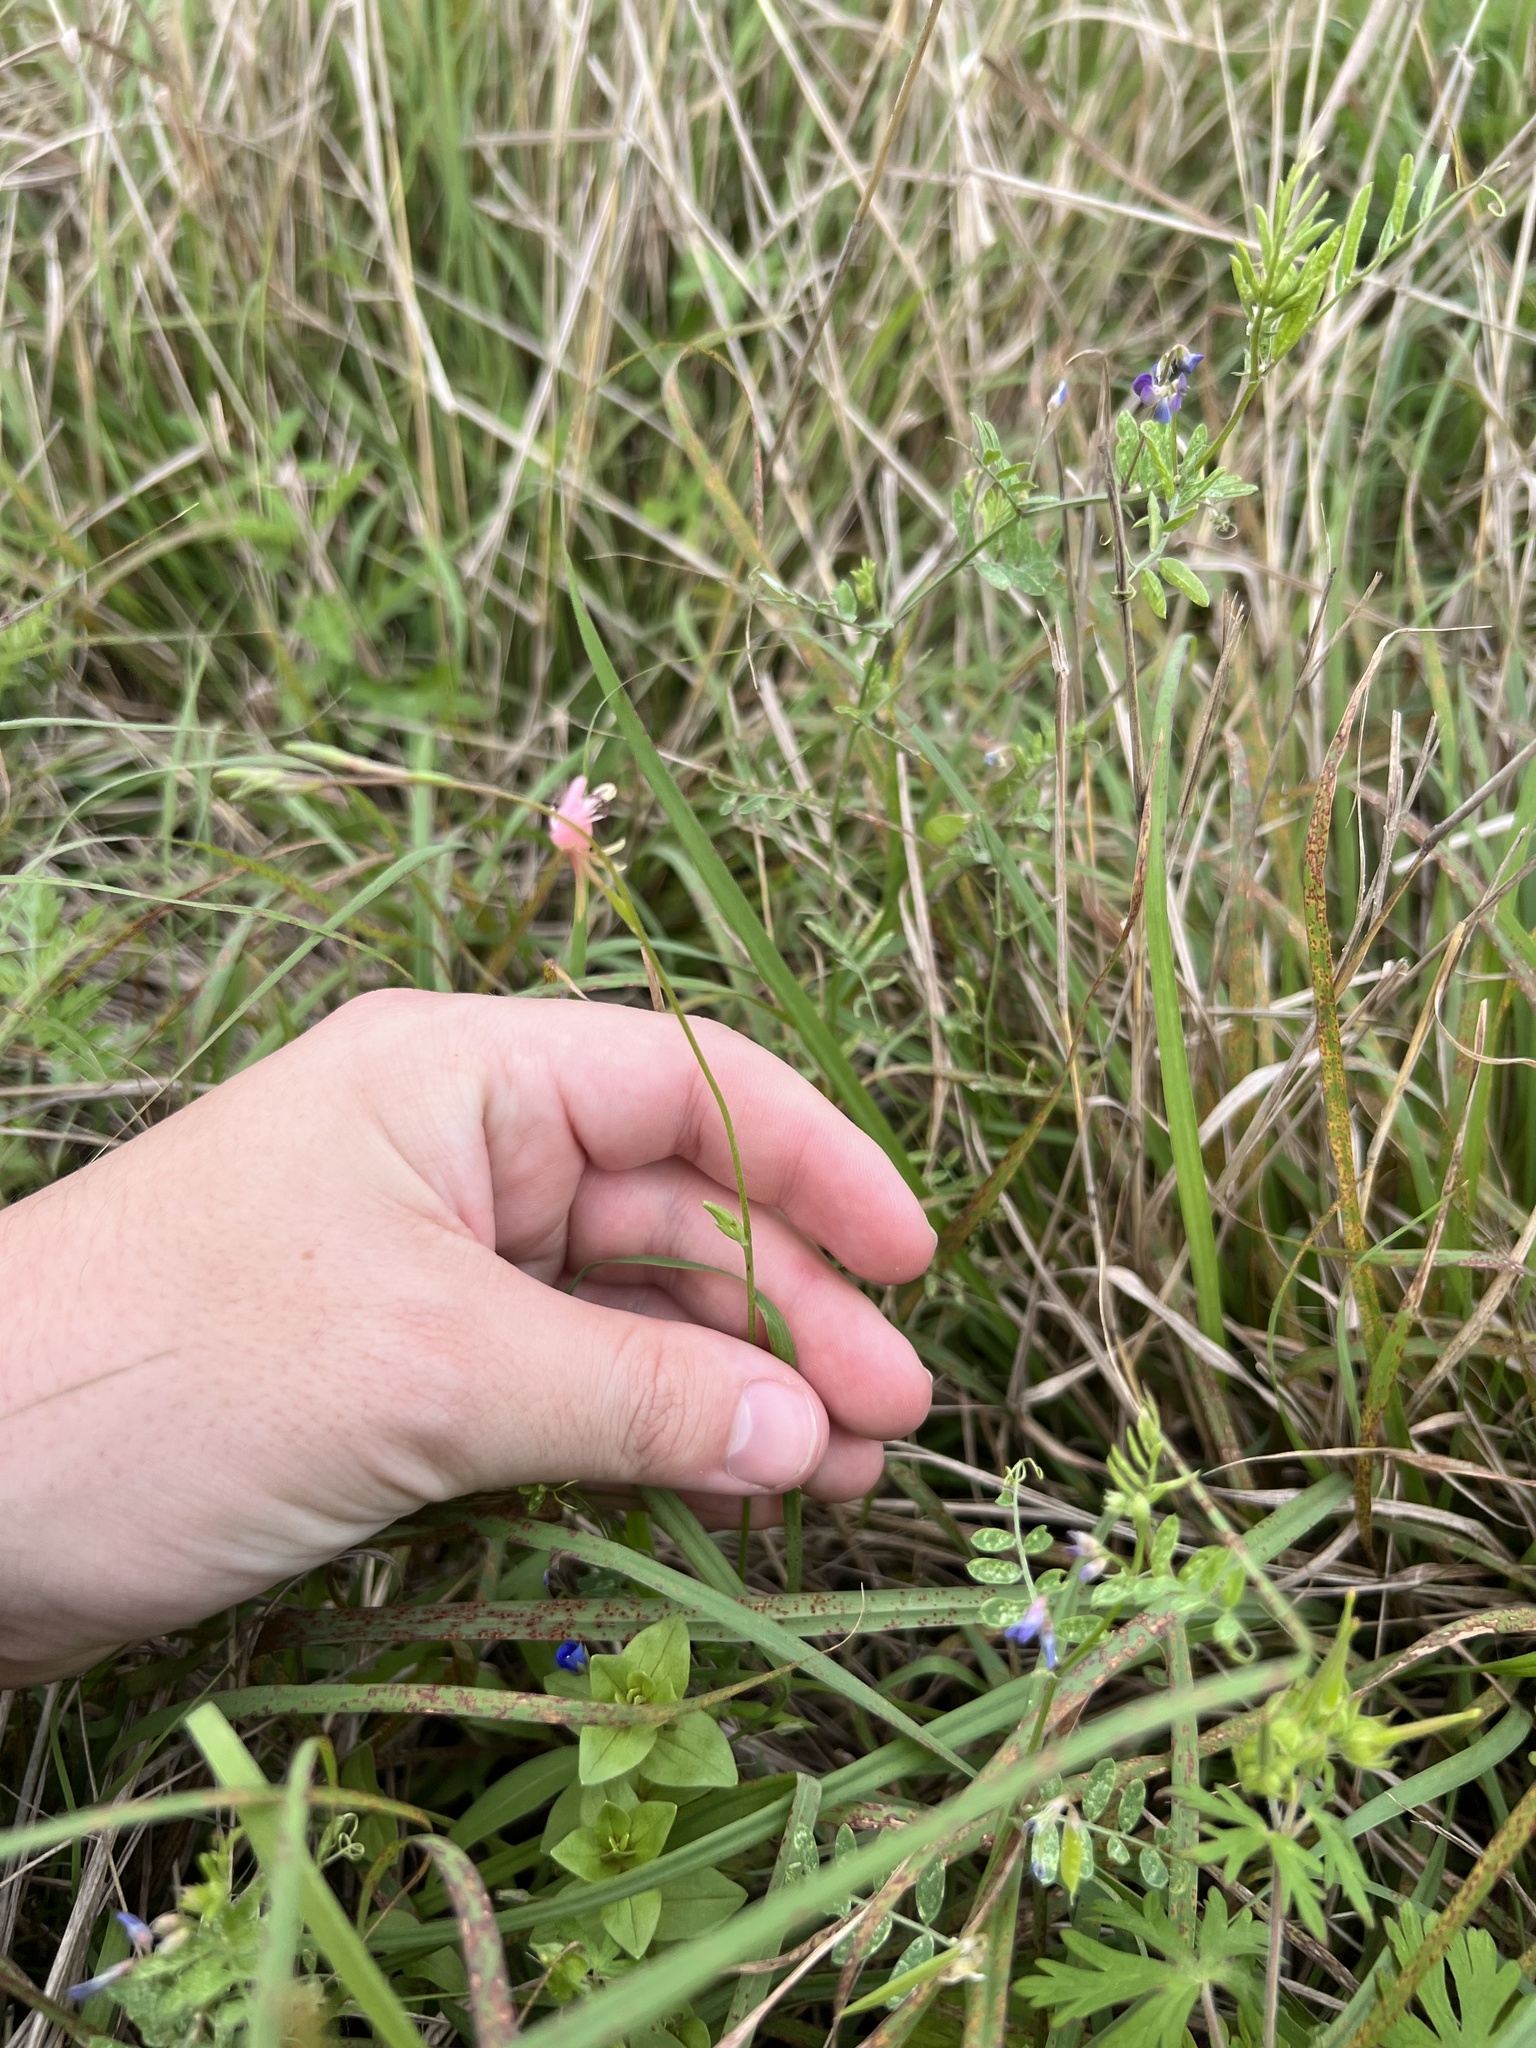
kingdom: Plantae
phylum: Tracheophyta
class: Magnoliopsida
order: Myrtales
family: Onagraceae
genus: Oenothera
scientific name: Oenothera suffulta
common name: Kisses
